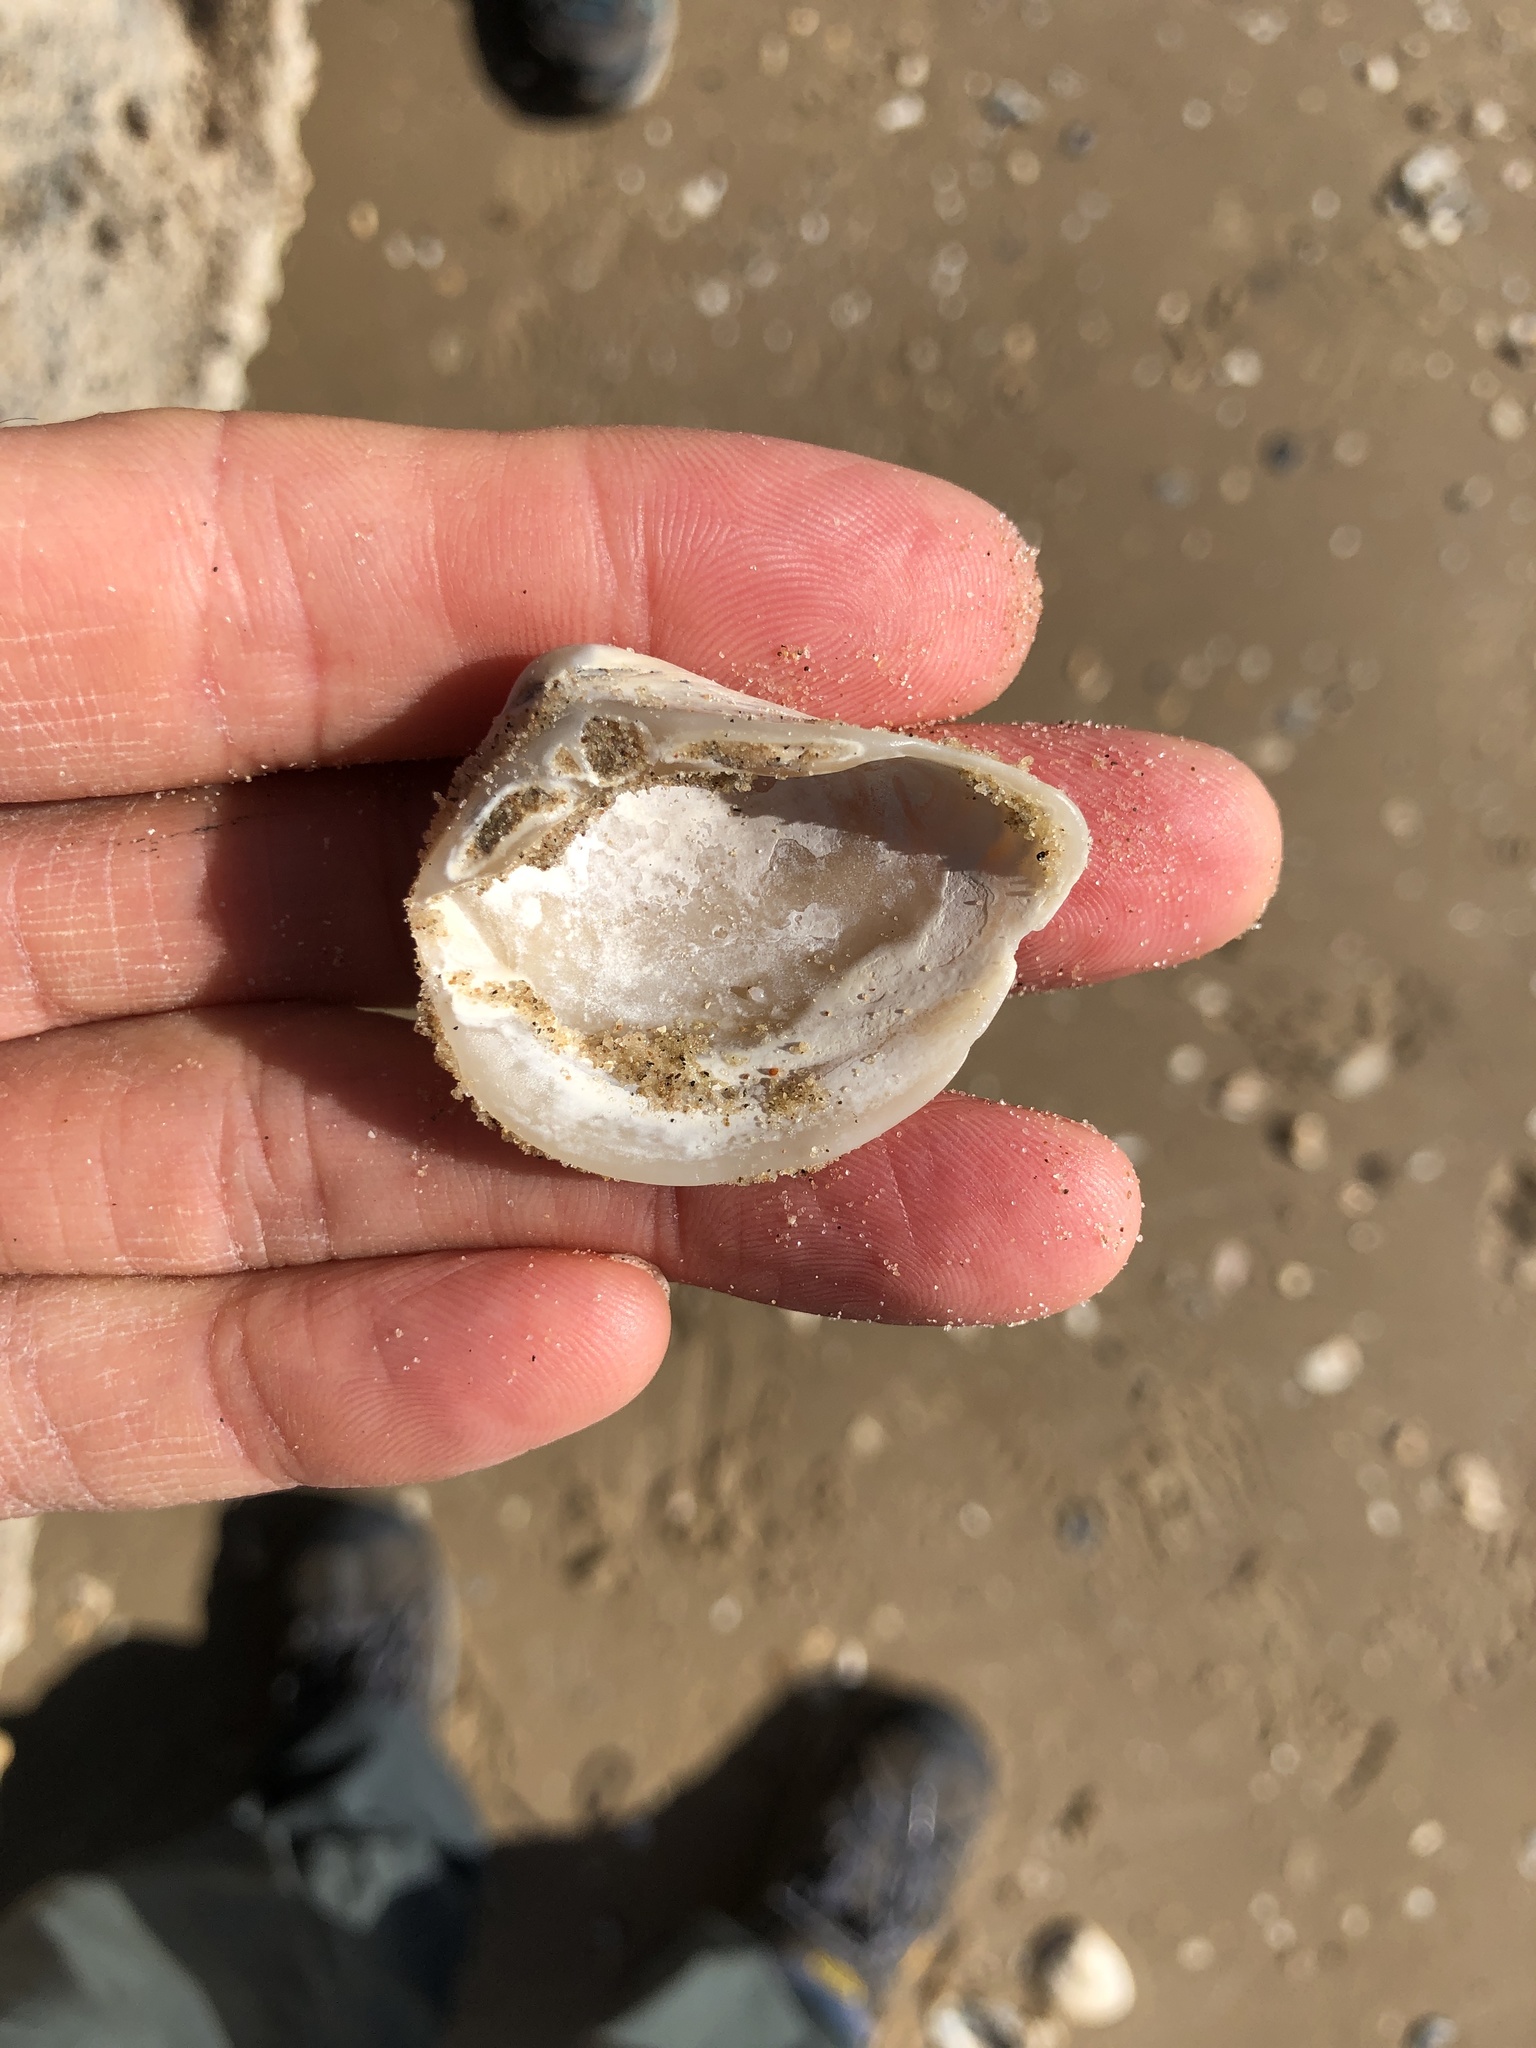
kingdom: Animalia
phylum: Mollusca
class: Bivalvia
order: Venerida
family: Mactridae
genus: Rangia
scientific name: Rangia flexuosa
